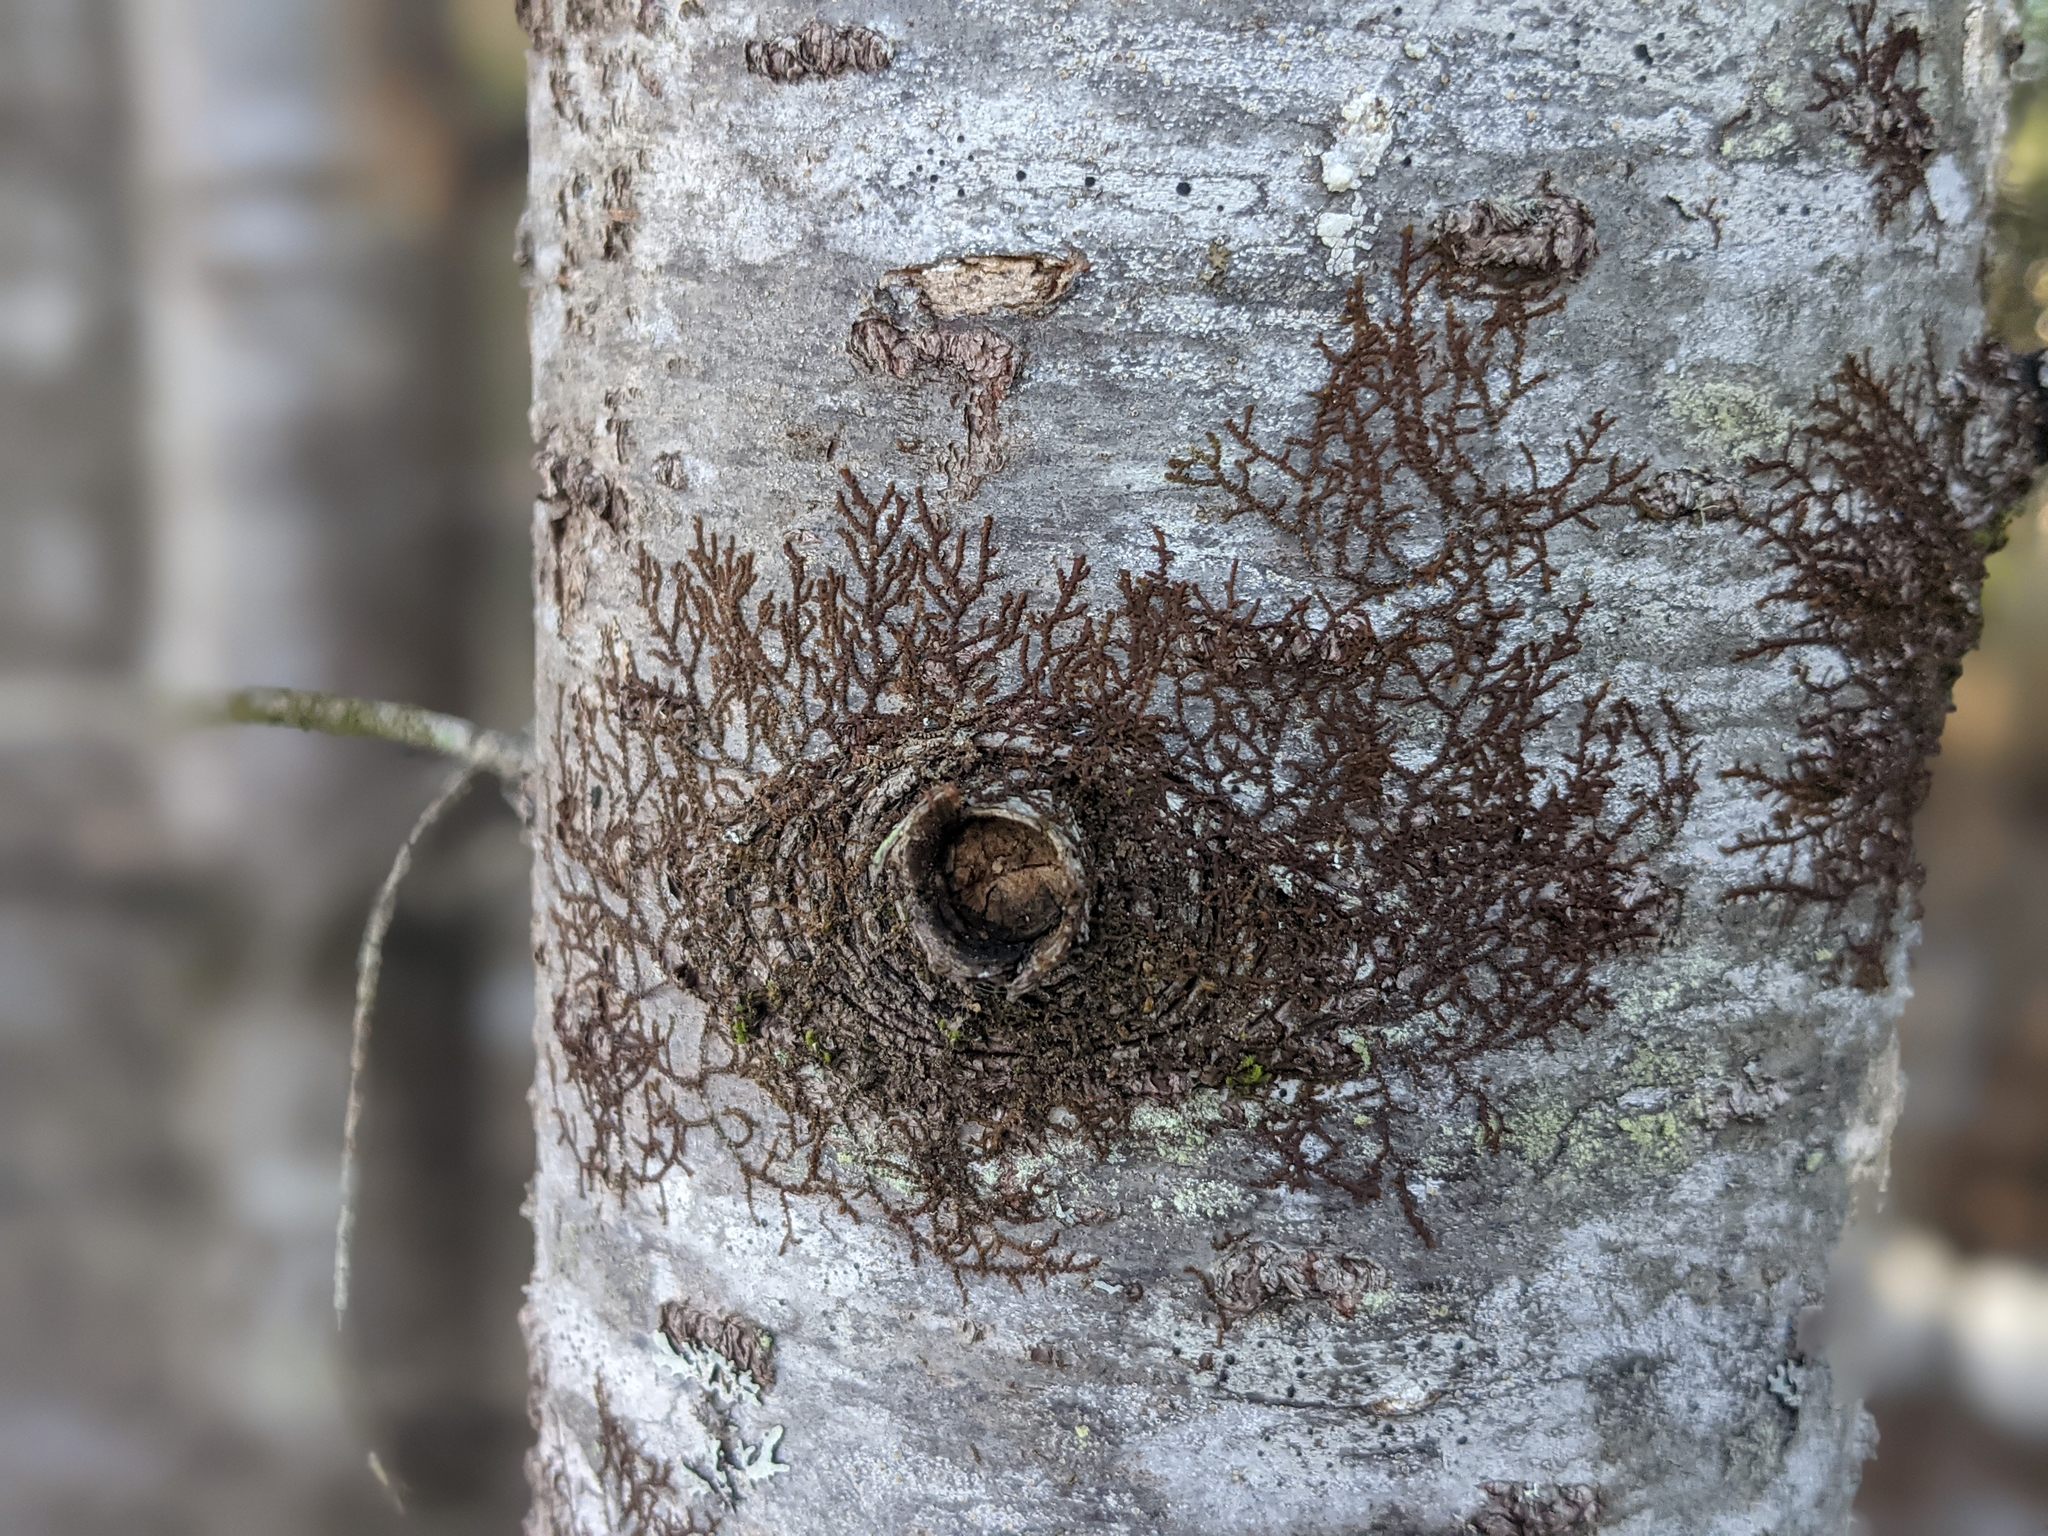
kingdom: Plantae
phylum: Marchantiophyta
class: Jungermanniopsida
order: Porellales
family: Frullaniaceae
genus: Frullania
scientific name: Frullania eboracensis
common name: New york scalewort
